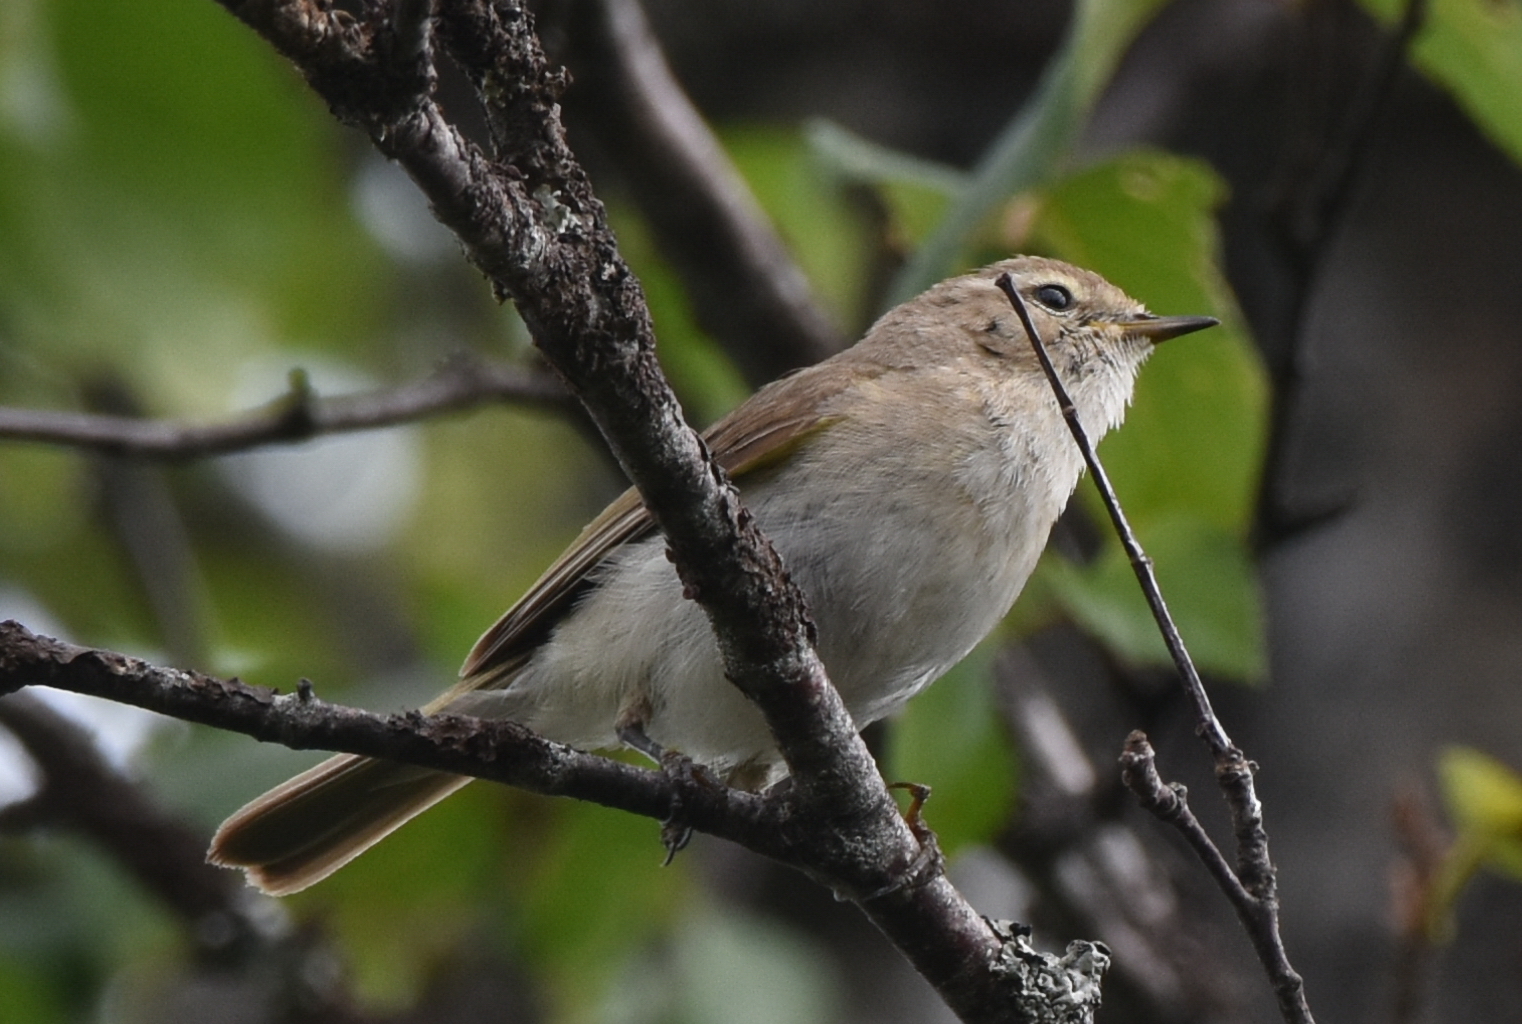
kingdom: Animalia
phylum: Chordata
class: Aves
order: Passeriformes
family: Phylloscopidae
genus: Phylloscopus
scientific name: Phylloscopus collybita
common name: Common chiffchaff
